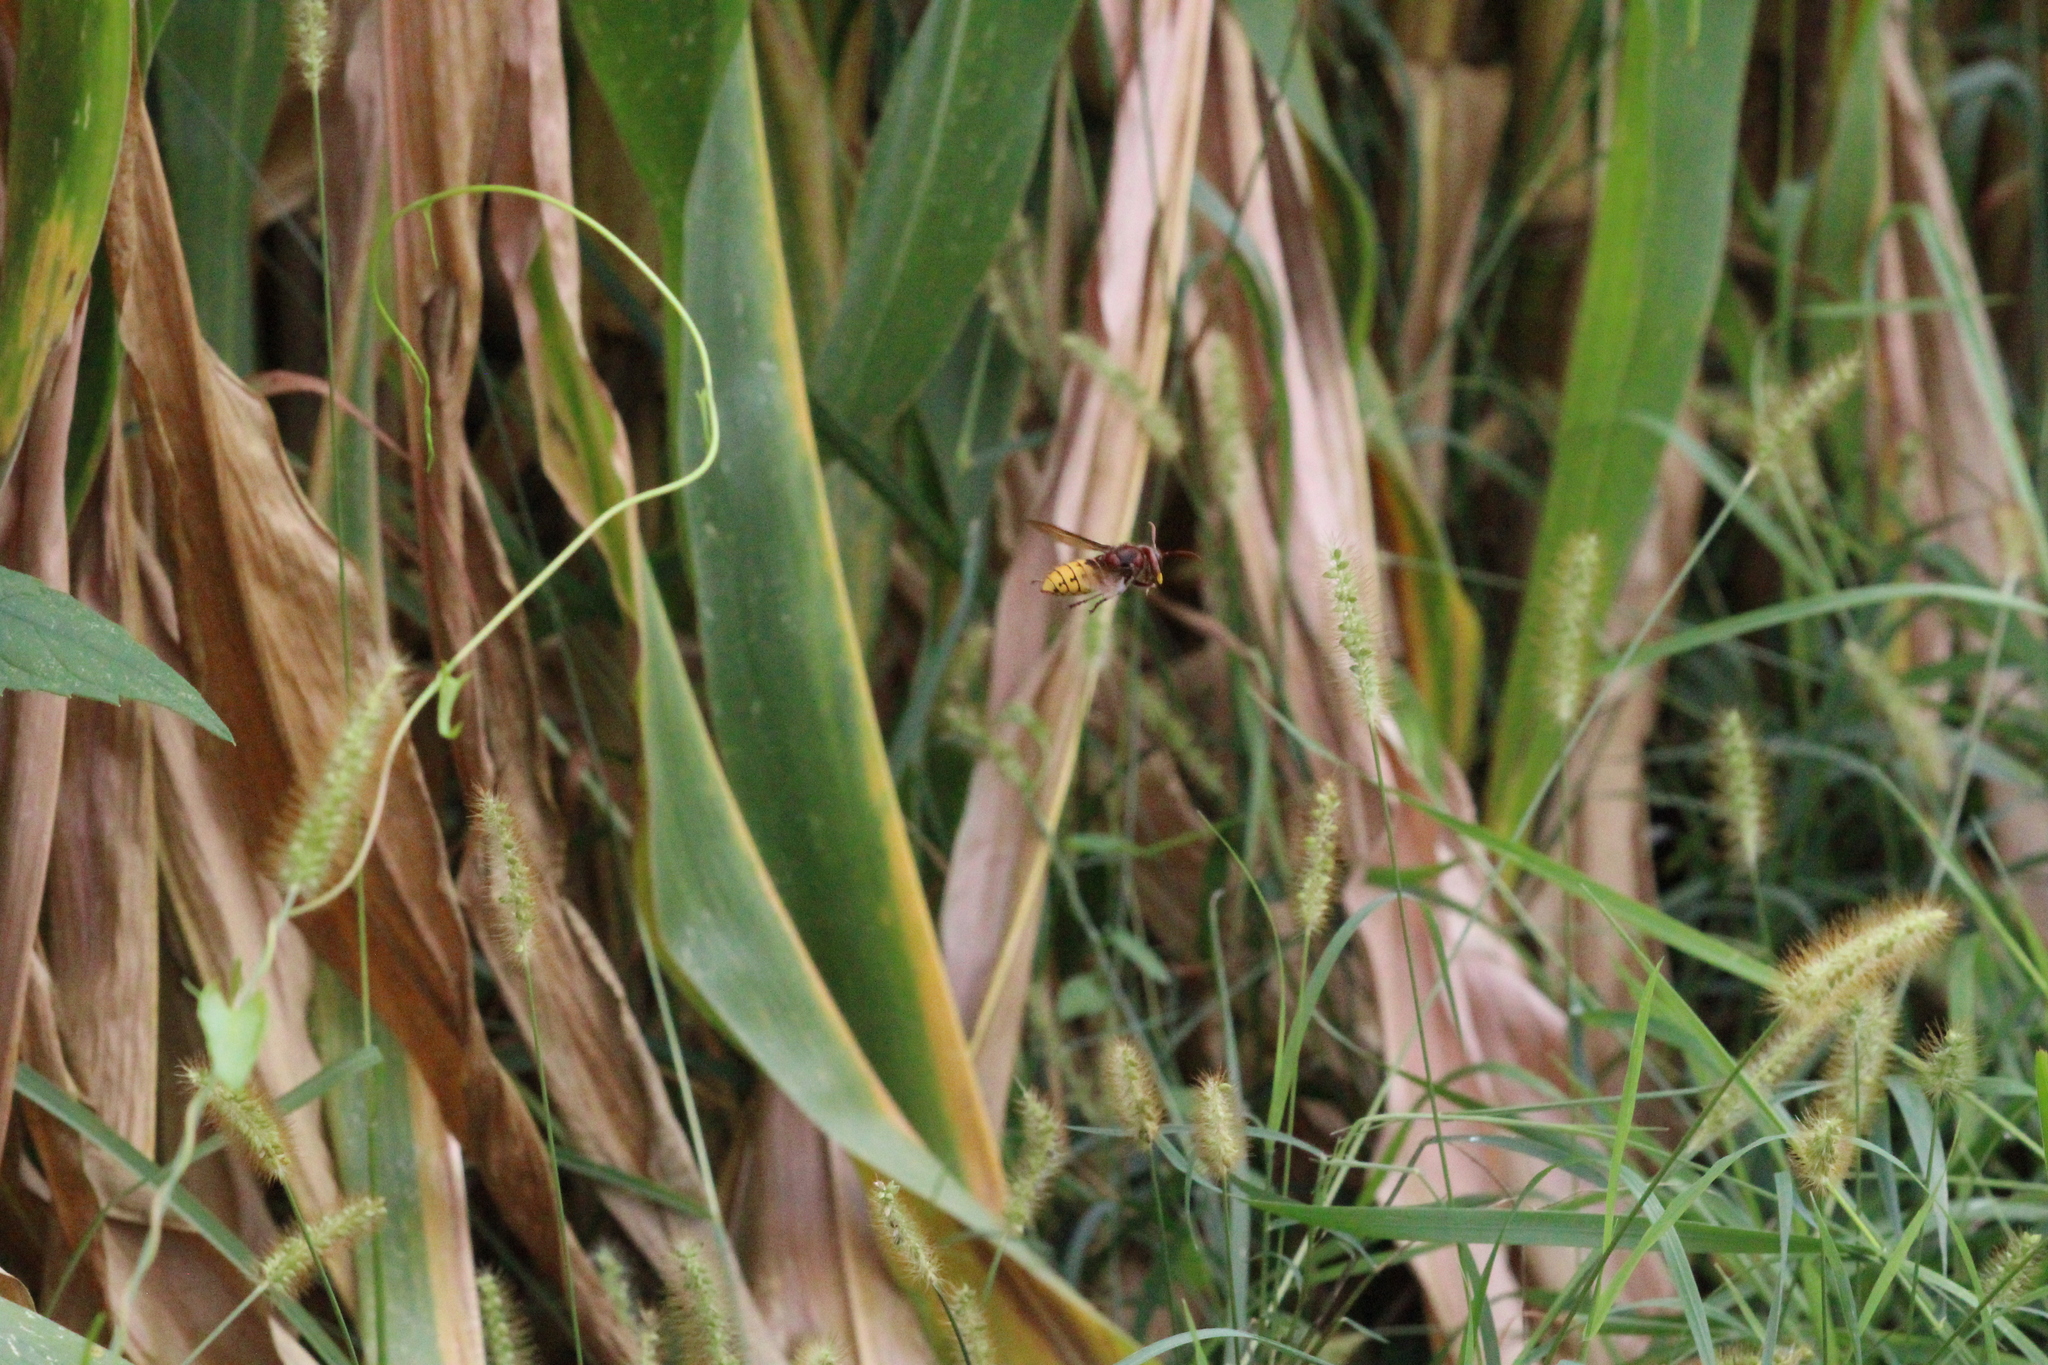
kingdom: Animalia
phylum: Arthropoda
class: Insecta
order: Hymenoptera
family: Vespidae
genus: Vespa
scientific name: Vespa crabro
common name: Hornet
